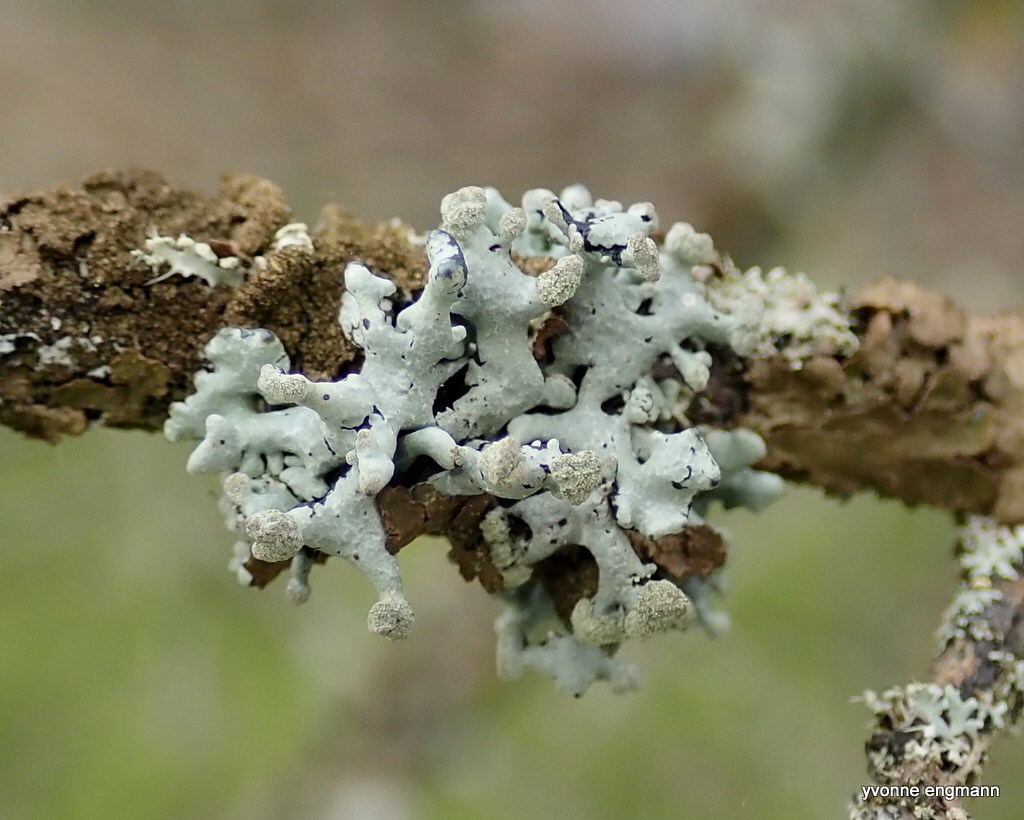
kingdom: Fungi
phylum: Ascomycota
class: Lecanoromycetes
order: Lecanorales
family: Parmeliaceae
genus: Hypogymnia
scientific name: Hypogymnia tubulosa
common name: Powder-headed tube lichen
